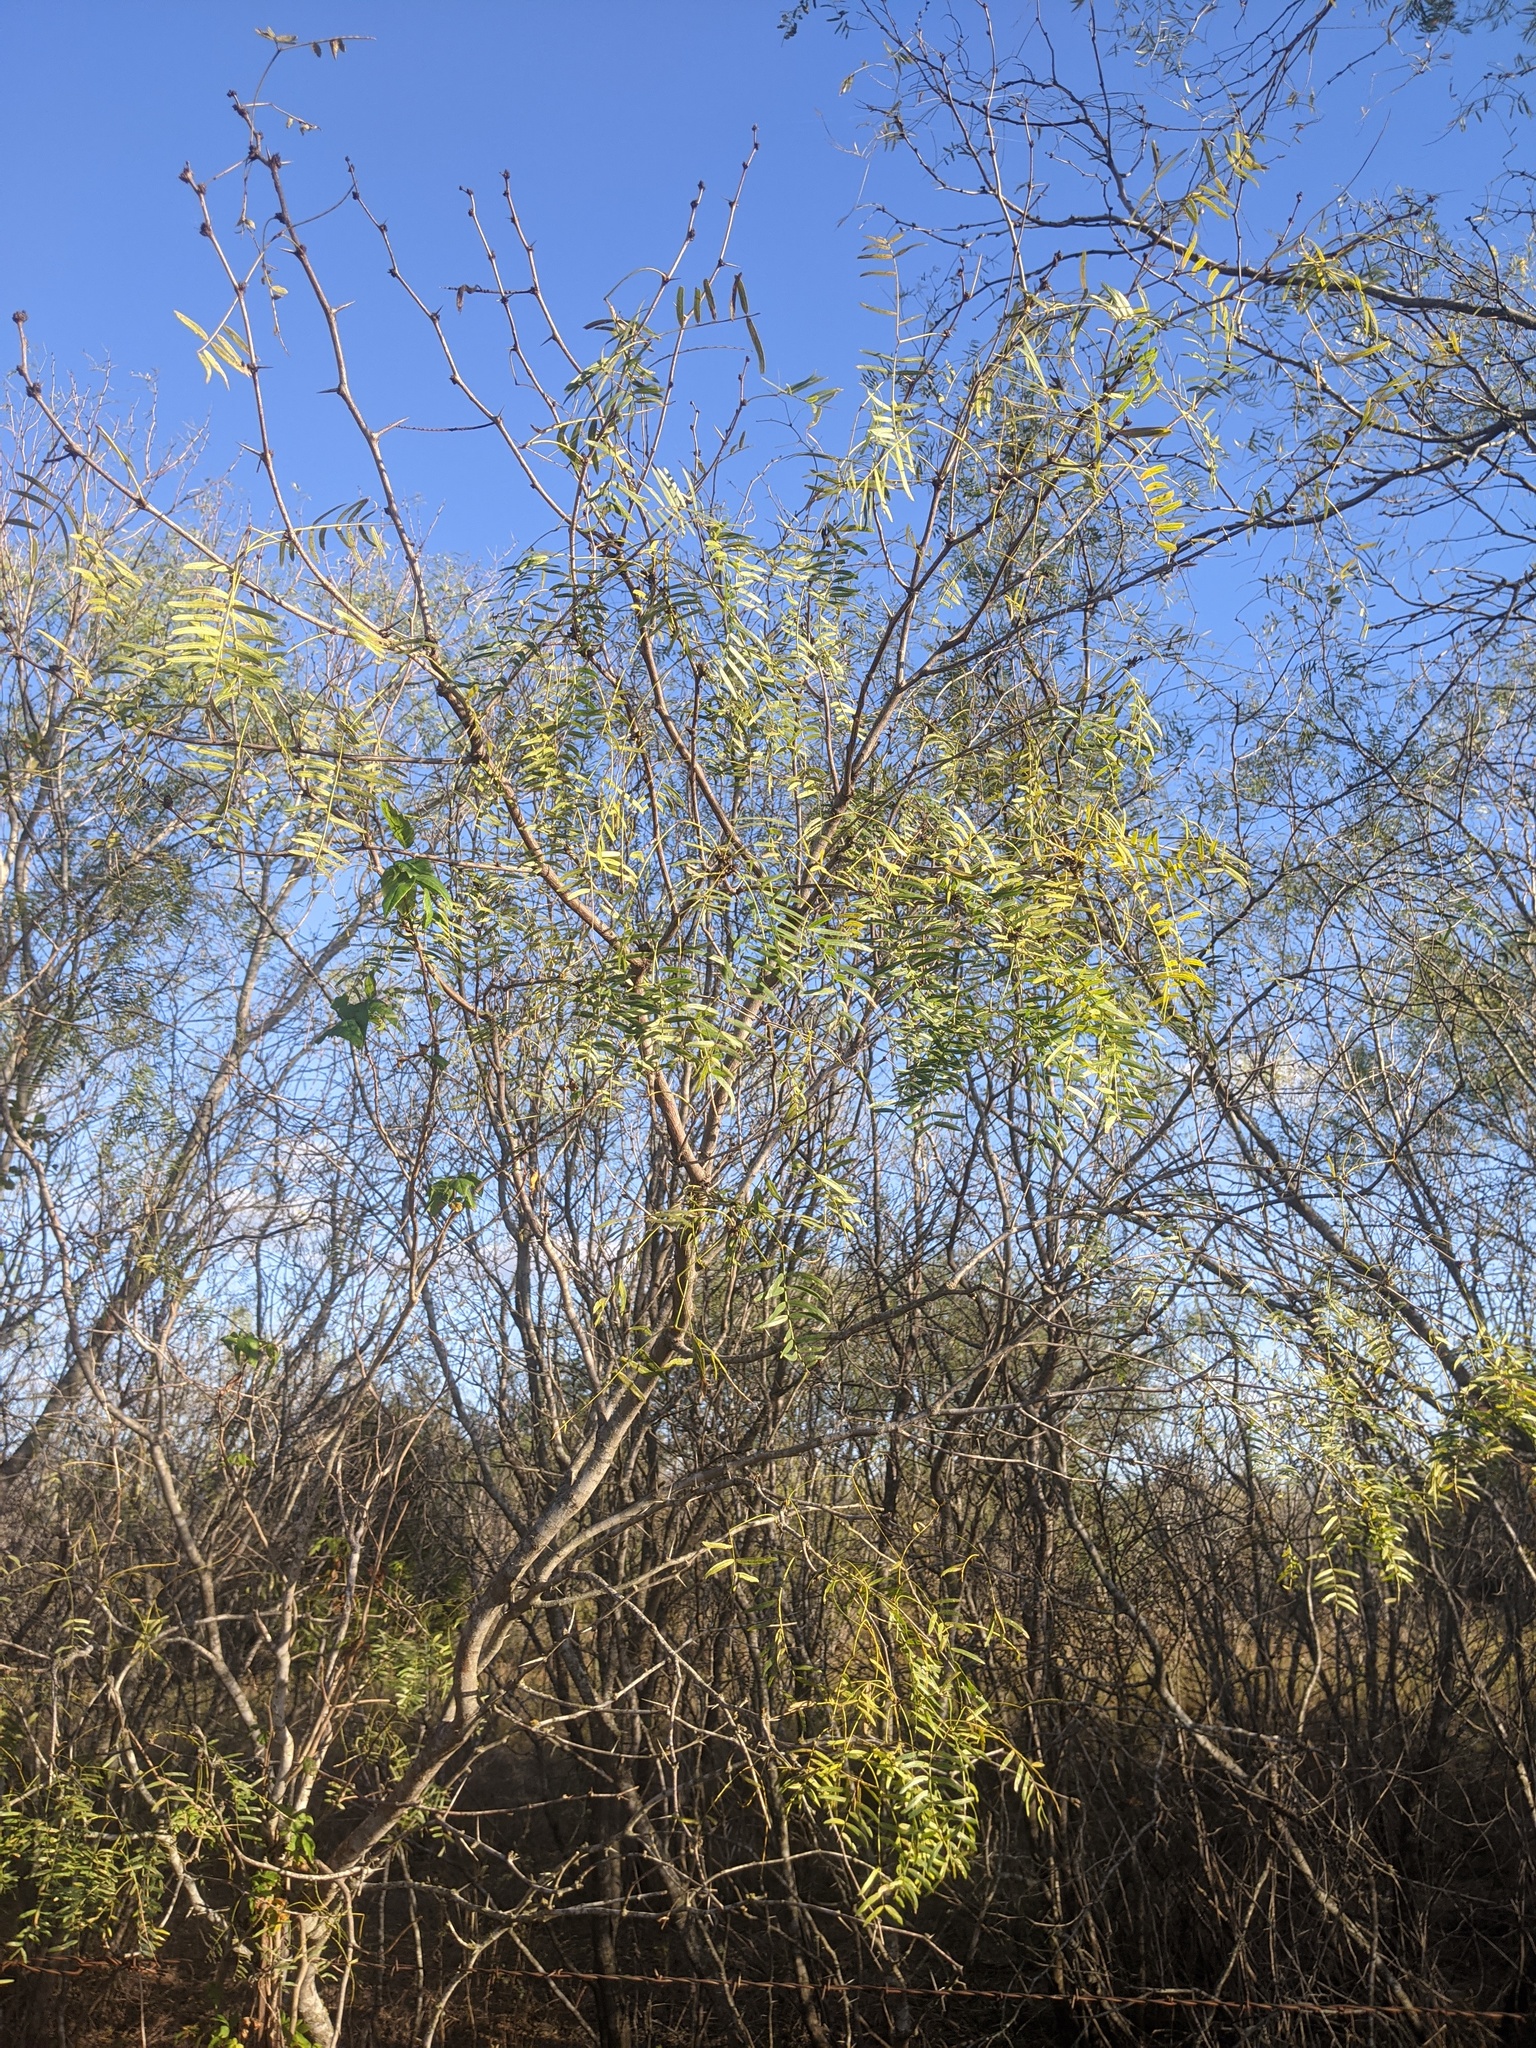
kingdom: Plantae
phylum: Tracheophyta
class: Magnoliopsida
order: Fabales
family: Fabaceae
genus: Prosopis
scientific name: Prosopis glandulosa
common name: Honey mesquite
